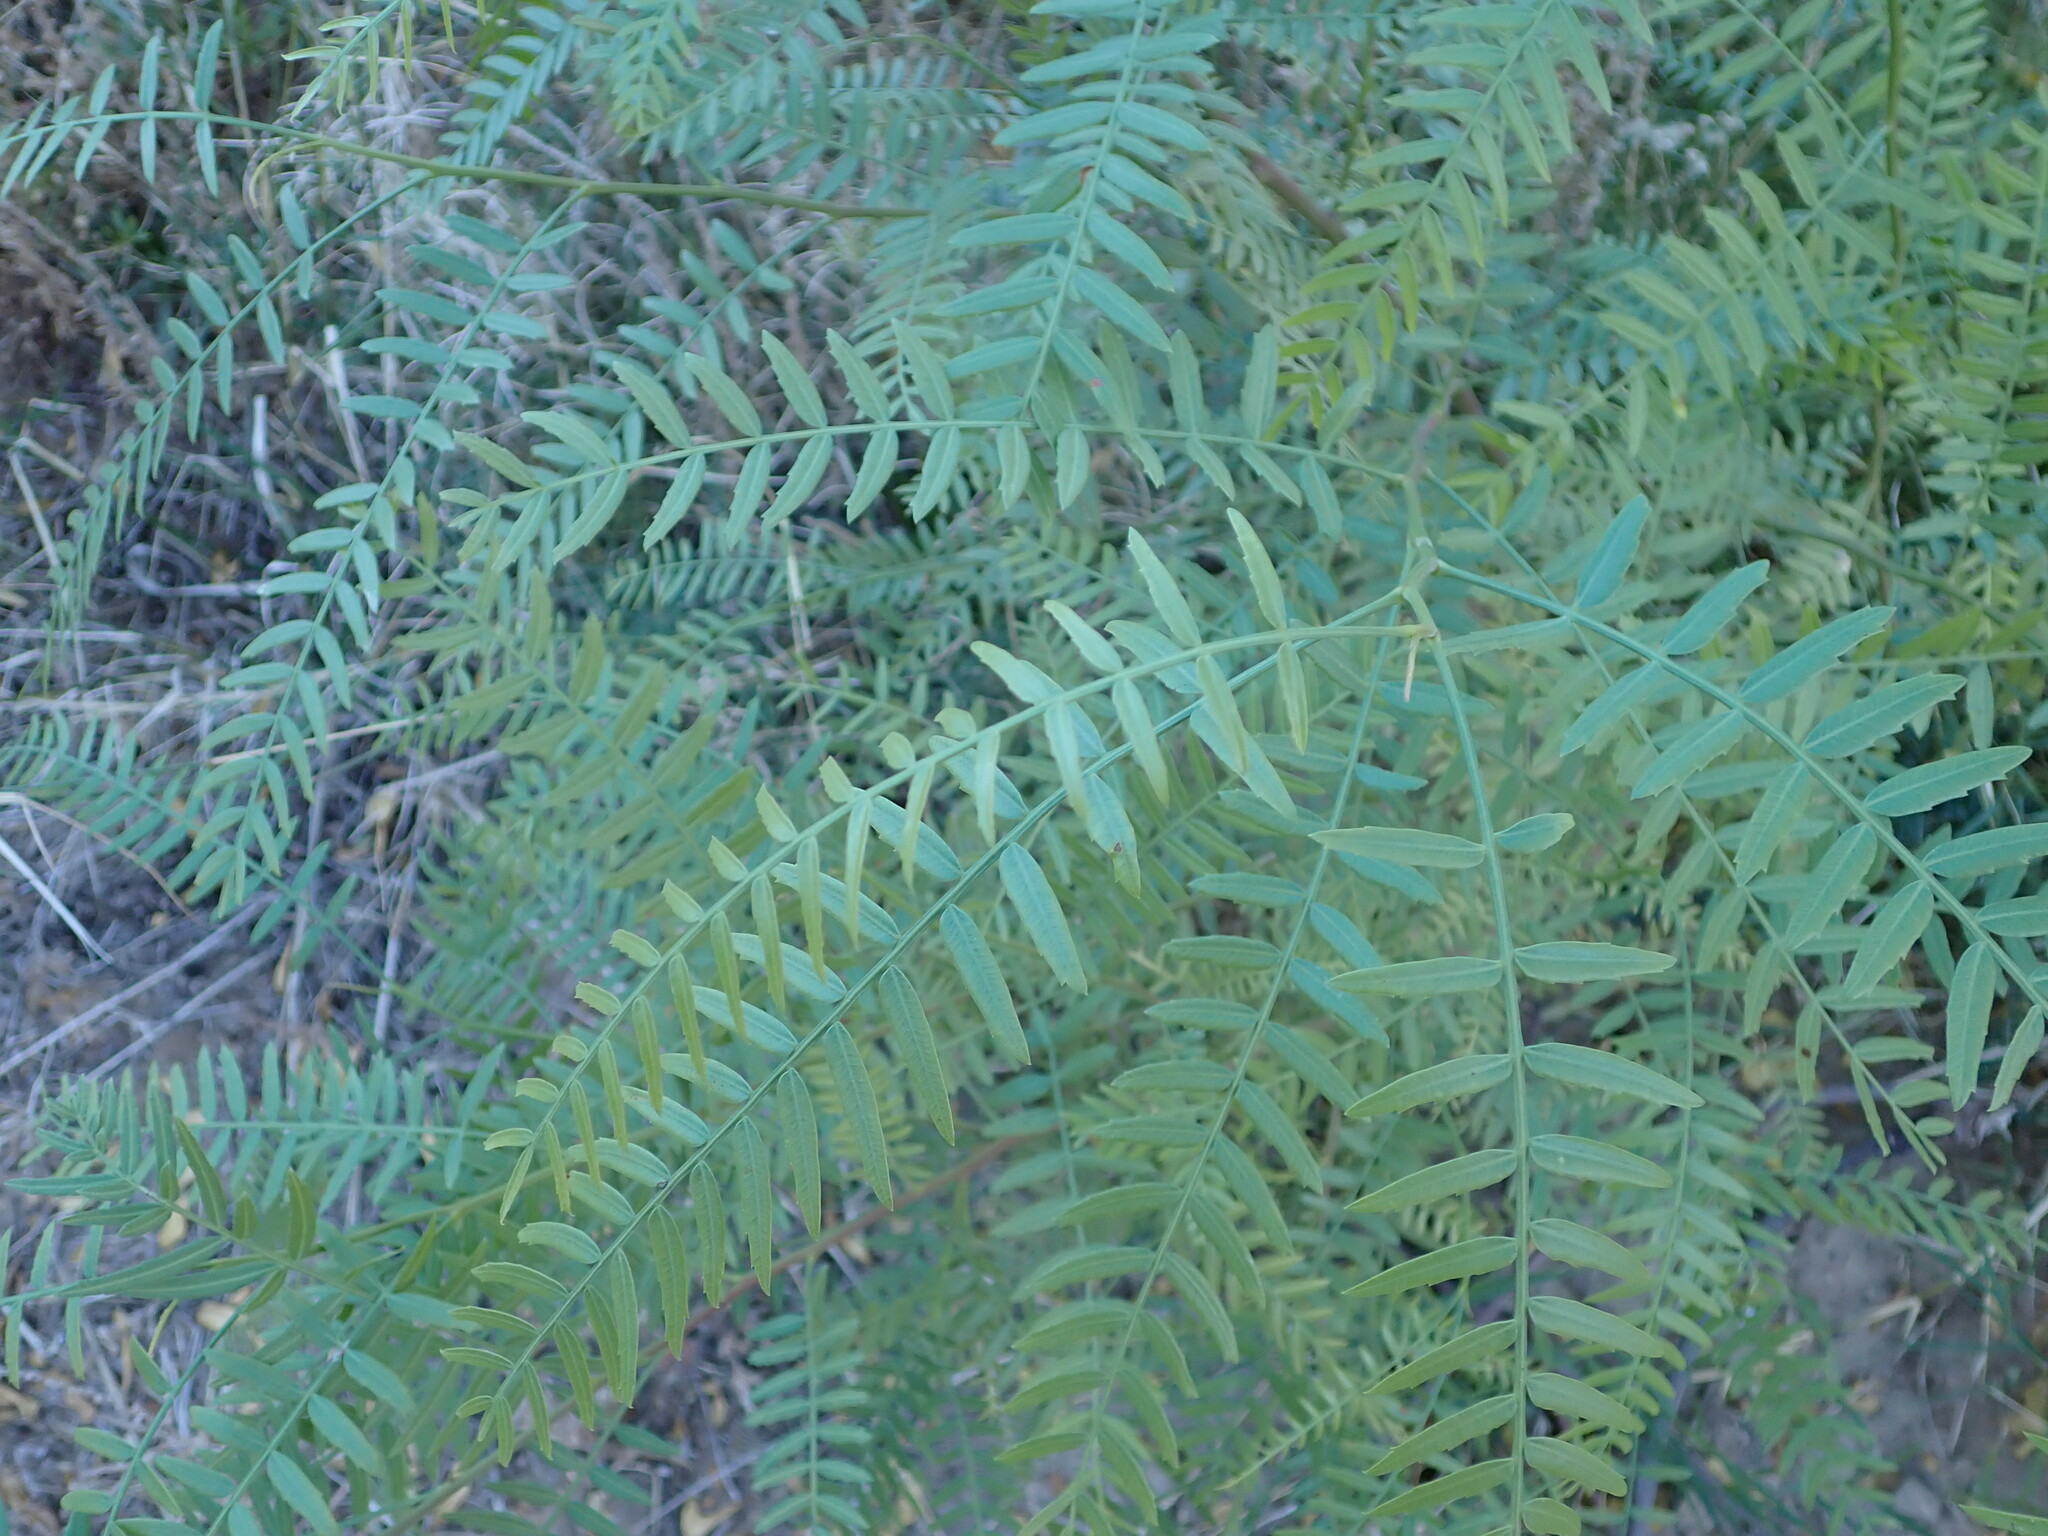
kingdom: Plantae
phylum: Tracheophyta
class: Magnoliopsida
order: Sapindales
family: Anacardiaceae
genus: Schinus
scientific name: Schinus molle
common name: Peruvian peppertree
